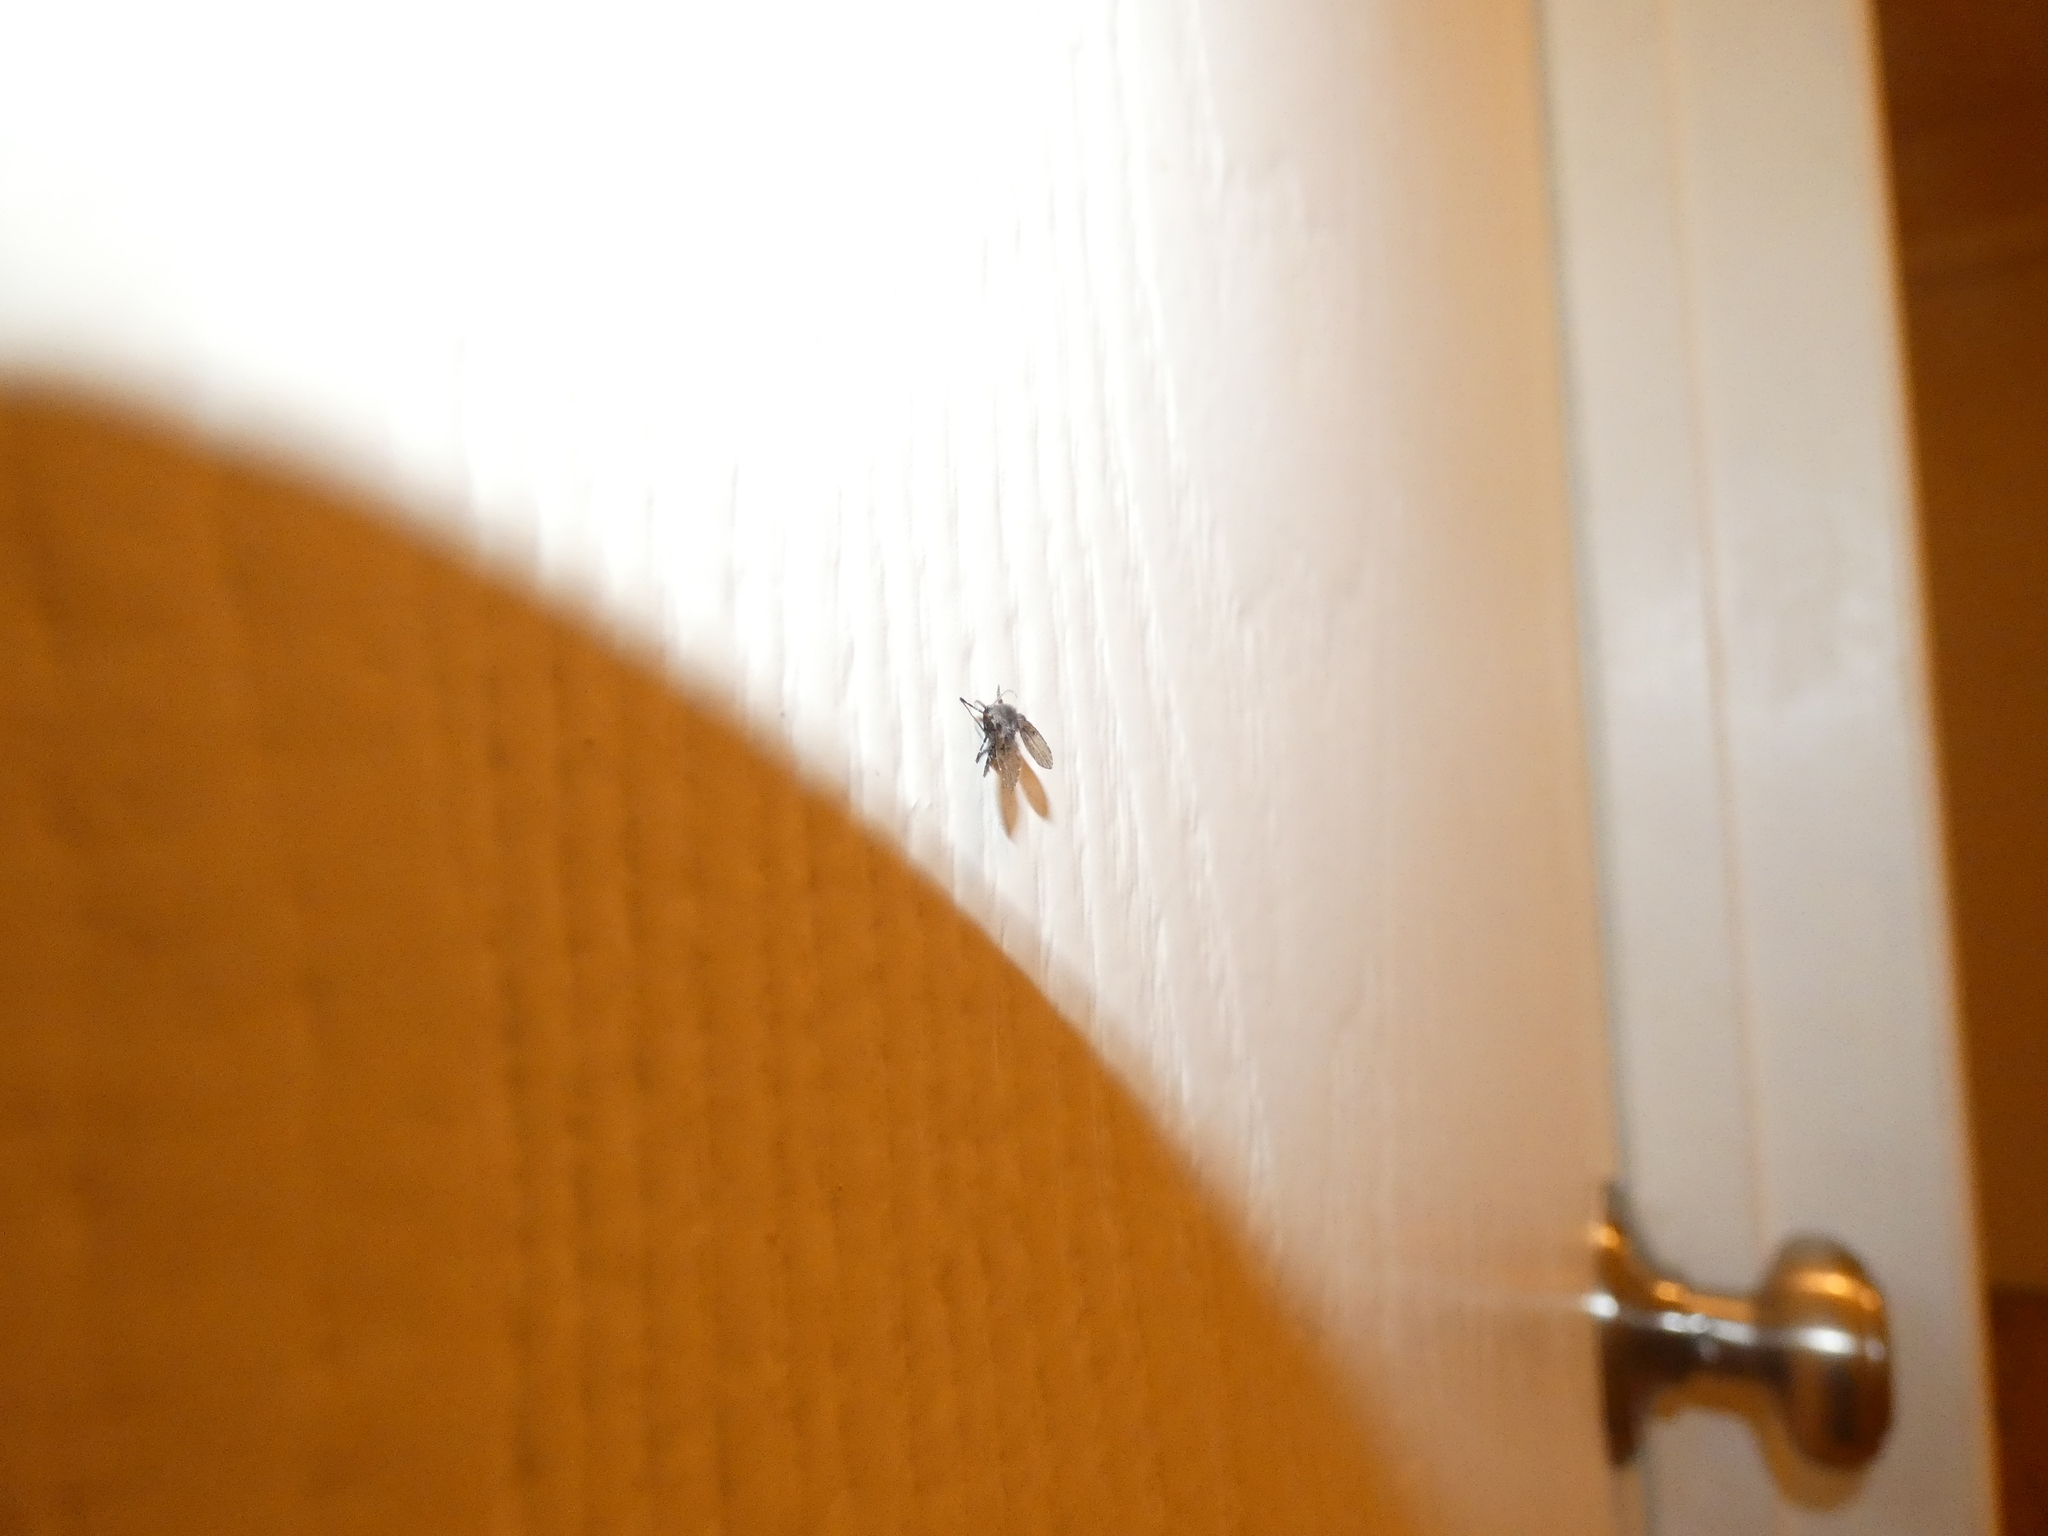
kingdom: Animalia
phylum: Arthropoda
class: Insecta
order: Diptera
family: Psychodidae
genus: Clogmia
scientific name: Clogmia albipunctatus
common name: White-spotted moth fly
